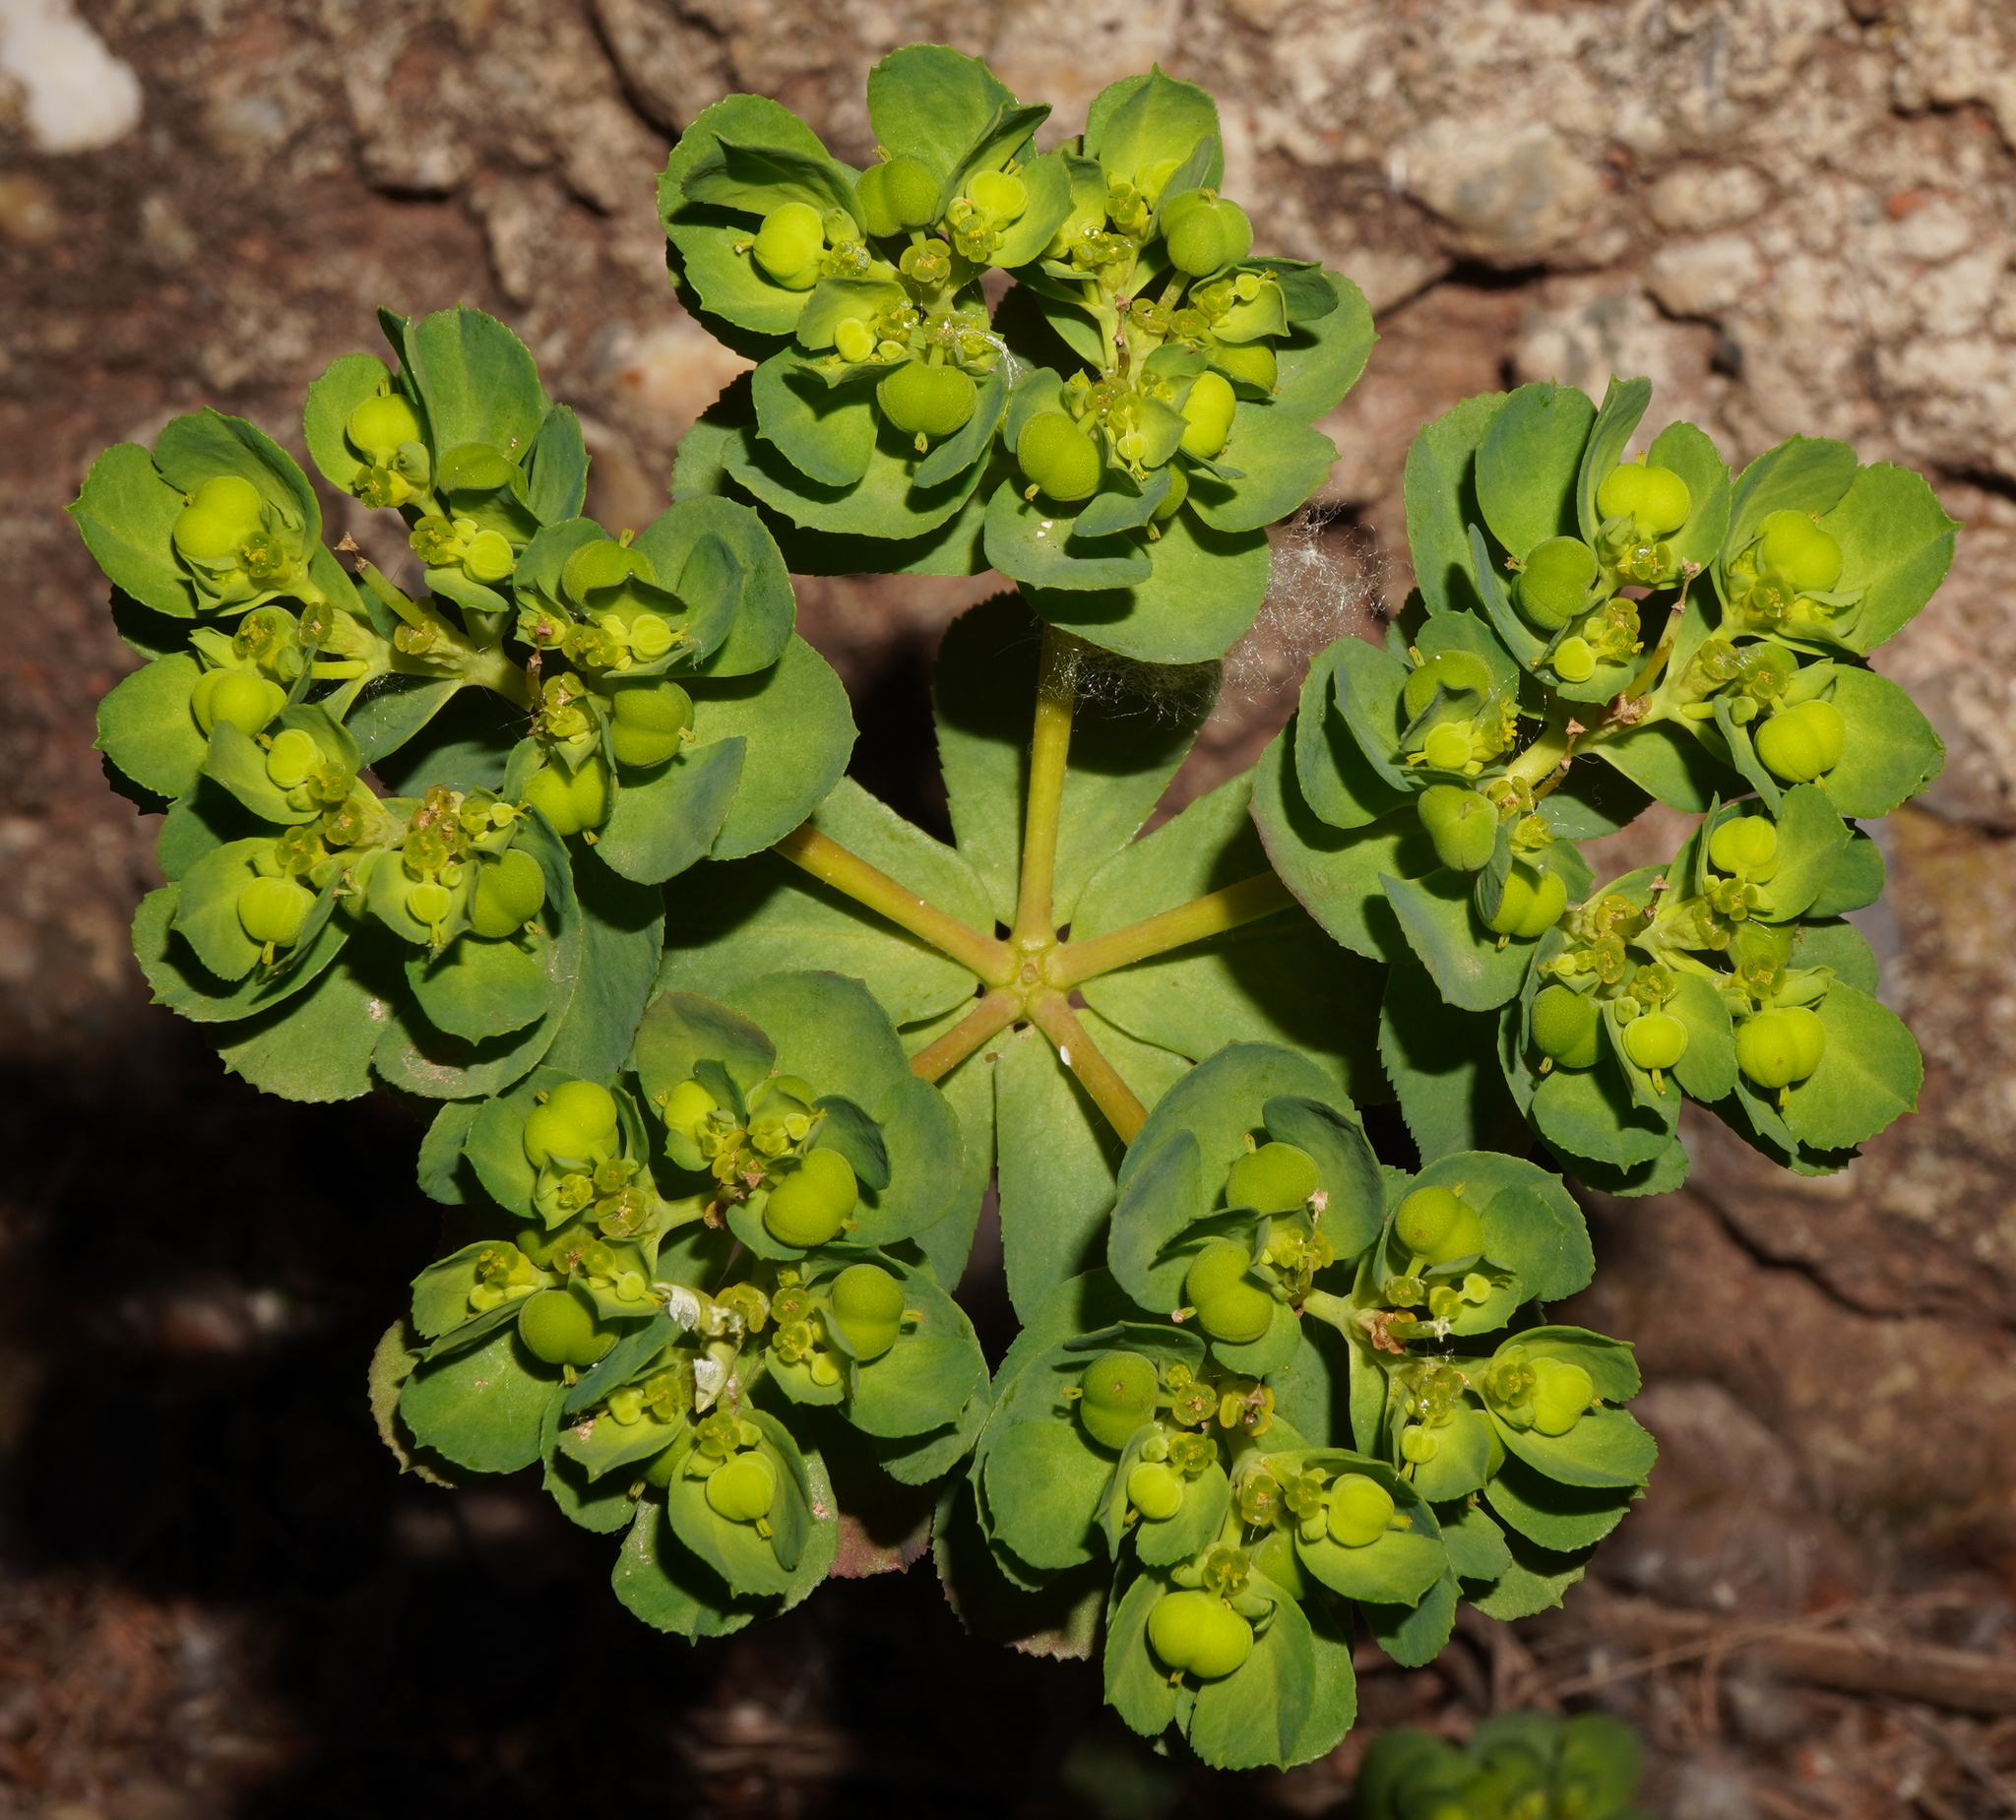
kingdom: Plantae
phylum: Tracheophyta
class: Magnoliopsida
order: Malpighiales
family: Euphorbiaceae
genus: Euphorbia
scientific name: Euphorbia helioscopia
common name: Sun spurge
